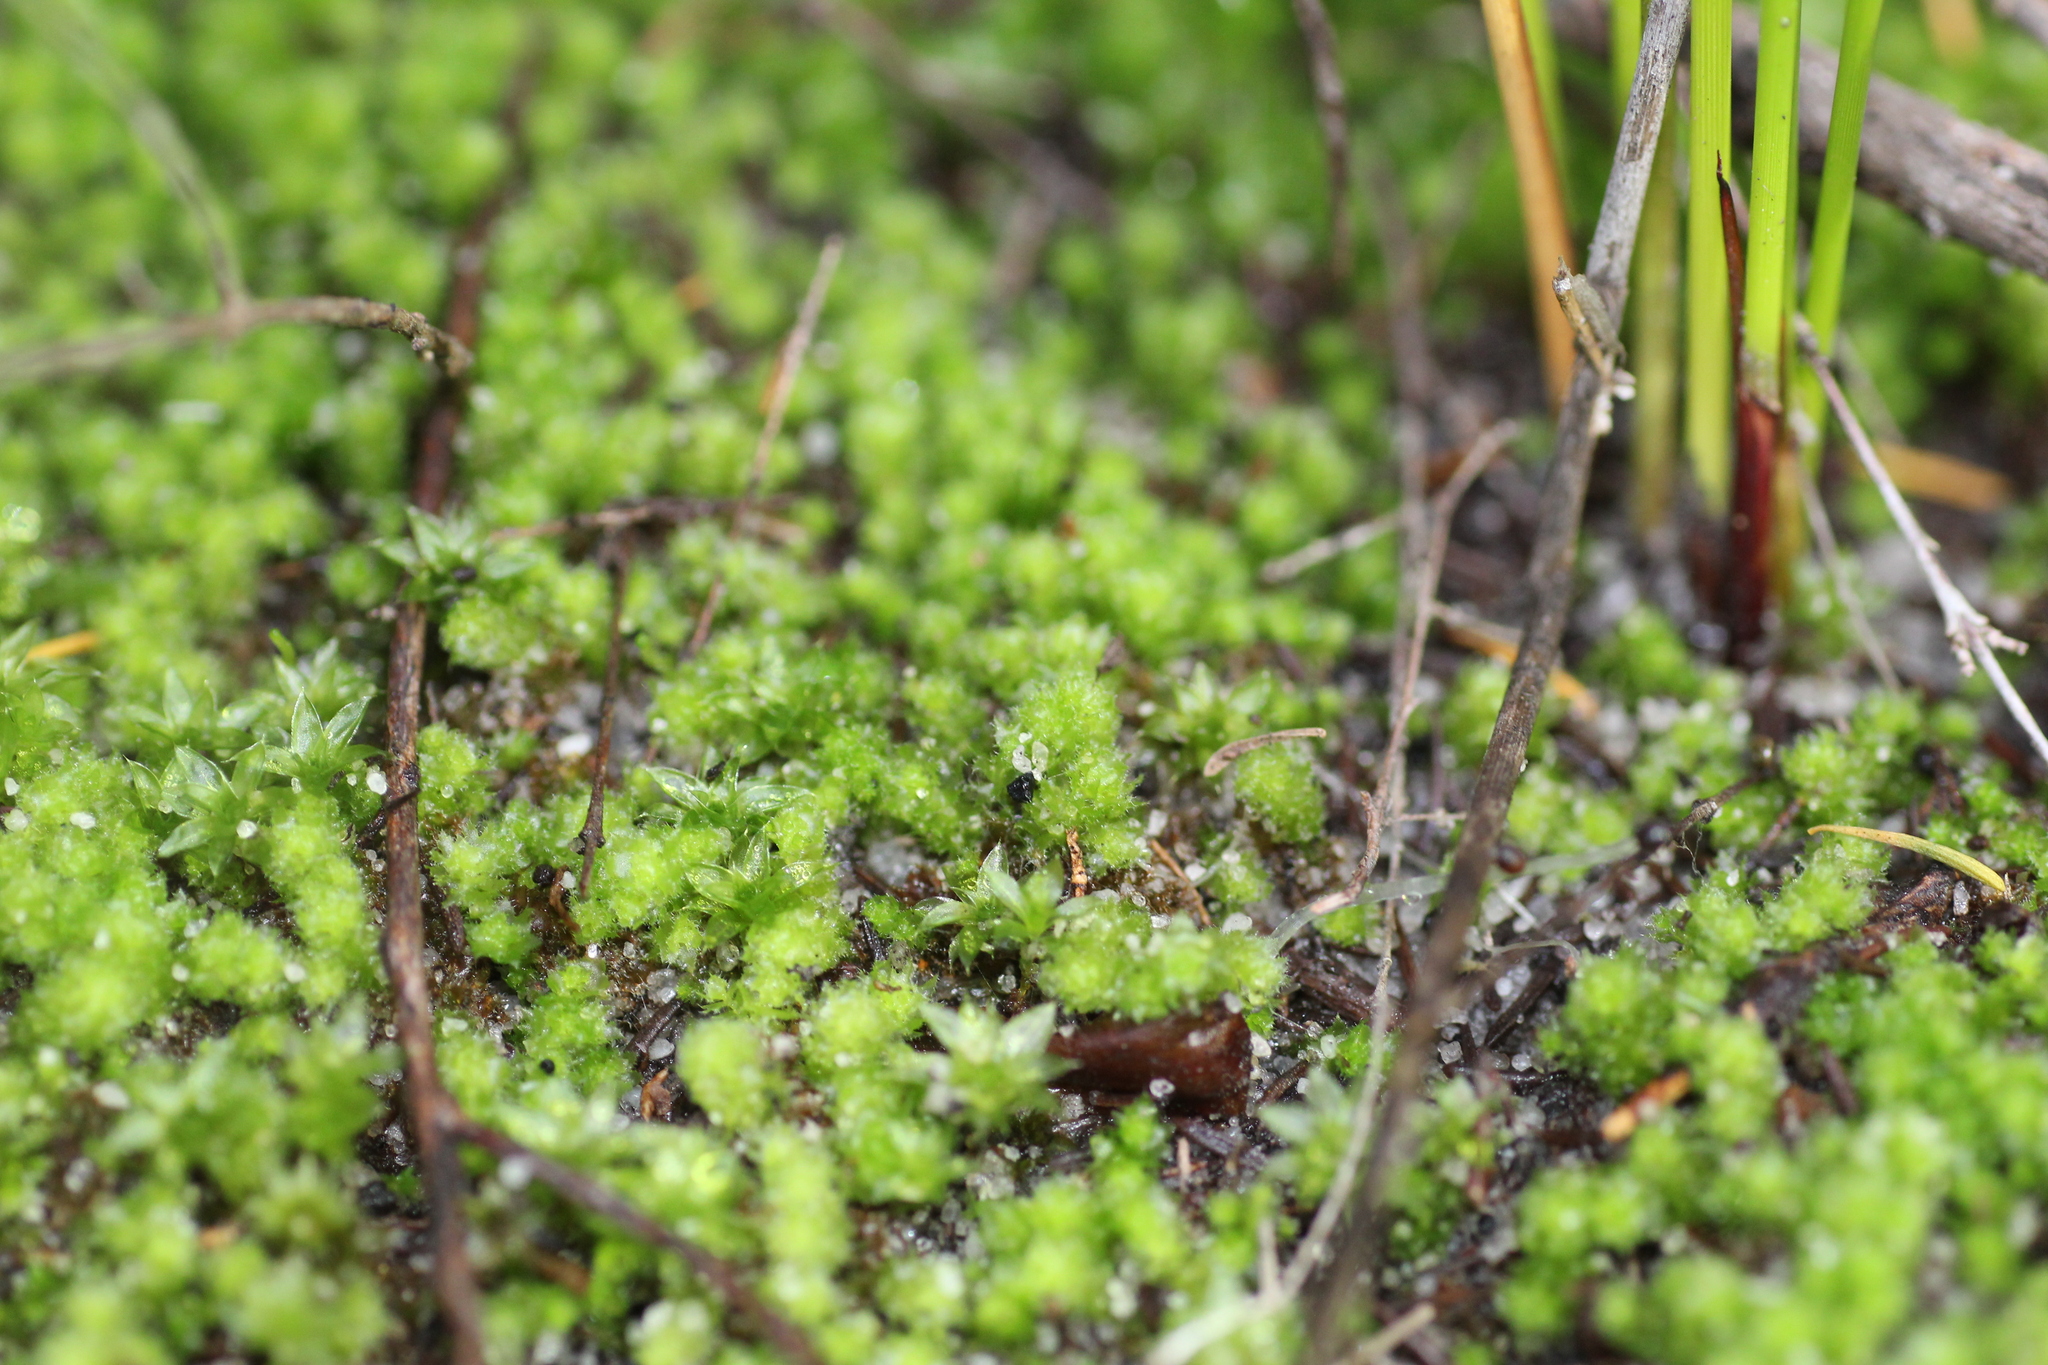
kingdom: Plantae
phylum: Marchantiophyta
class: Jungermanniopsida
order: Jungermanniales
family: Cephaloziellaceae
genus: Chaetophyllopsis
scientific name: Chaetophyllopsis whiteleggei
